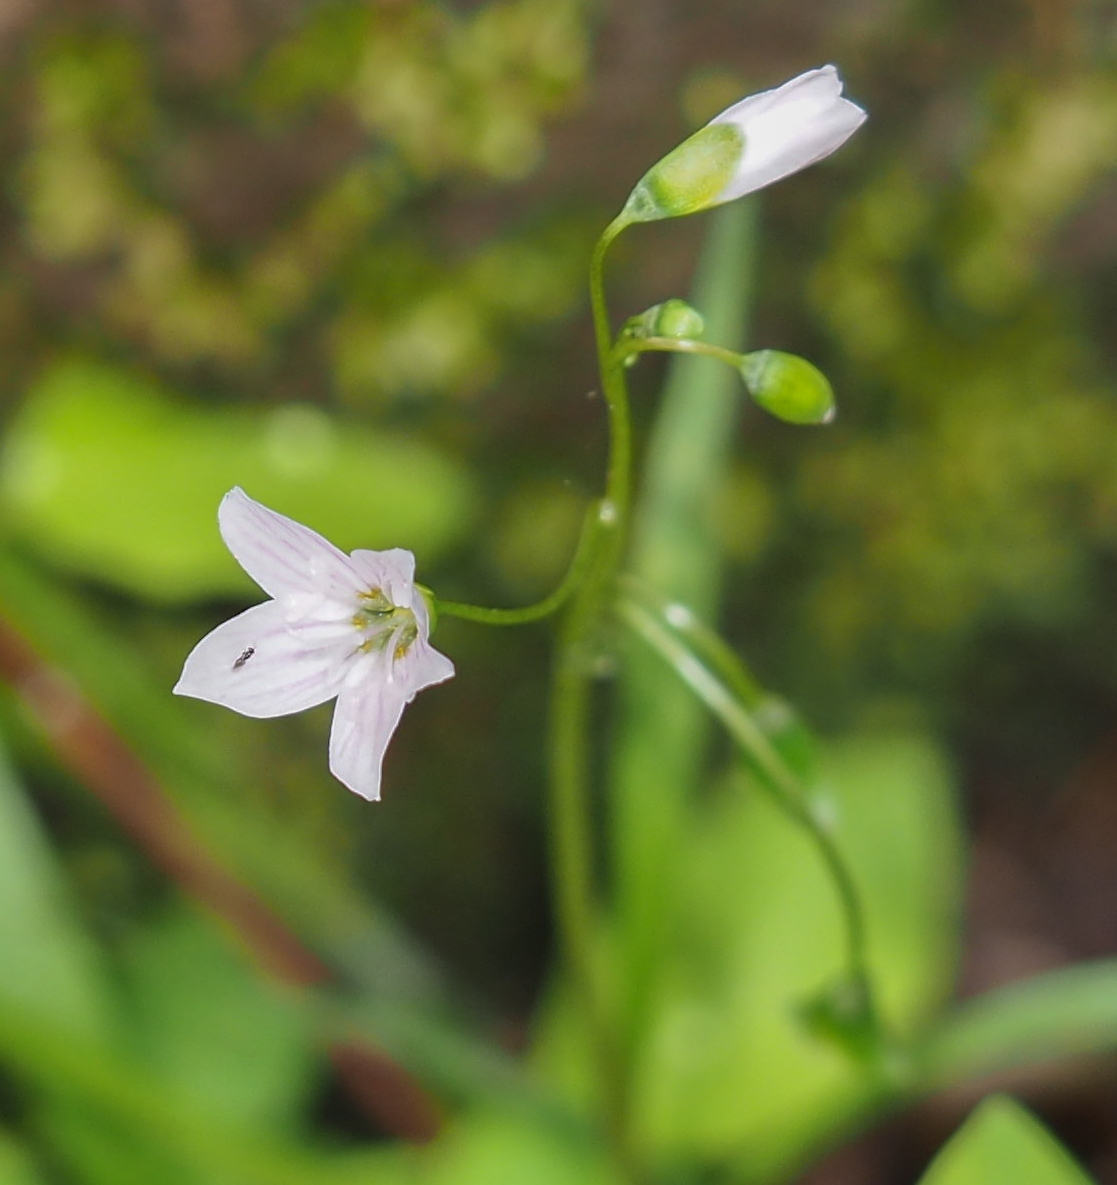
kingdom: Plantae
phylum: Tracheophyta
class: Magnoliopsida
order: Caryophyllales
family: Montiaceae
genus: Claytonia
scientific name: Claytonia virginica
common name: Virginia springbeauty
